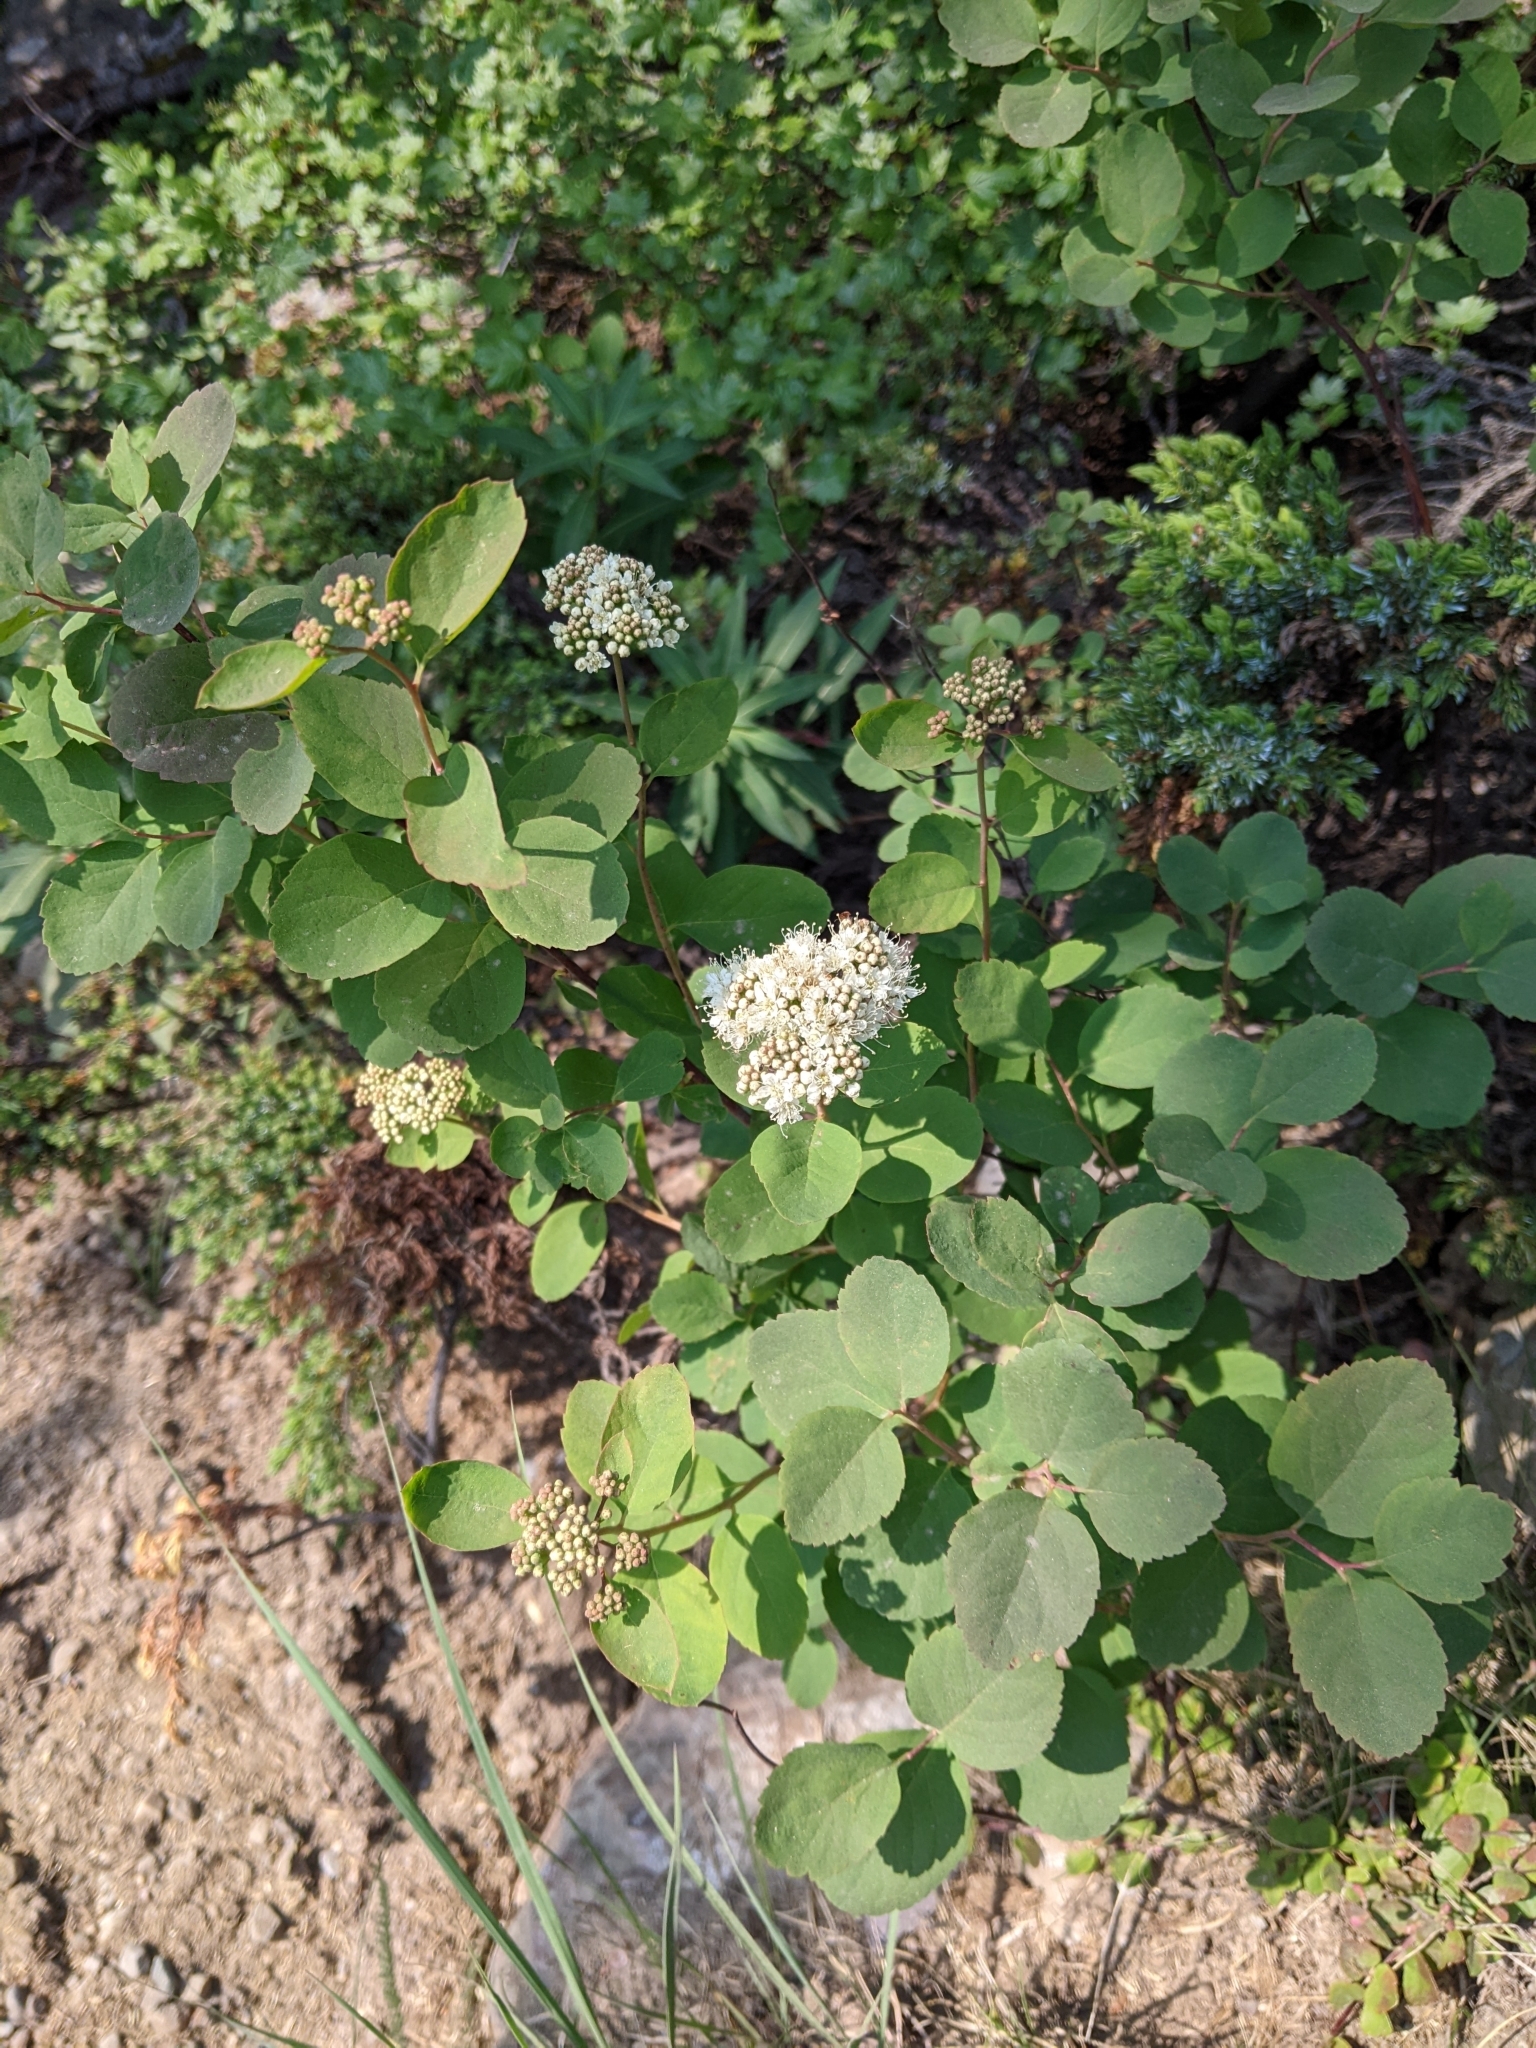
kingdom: Plantae
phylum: Tracheophyta
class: Magnoliopsida
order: Rosales
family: Rosaceae
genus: Spiraea
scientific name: Spiraea lucida
